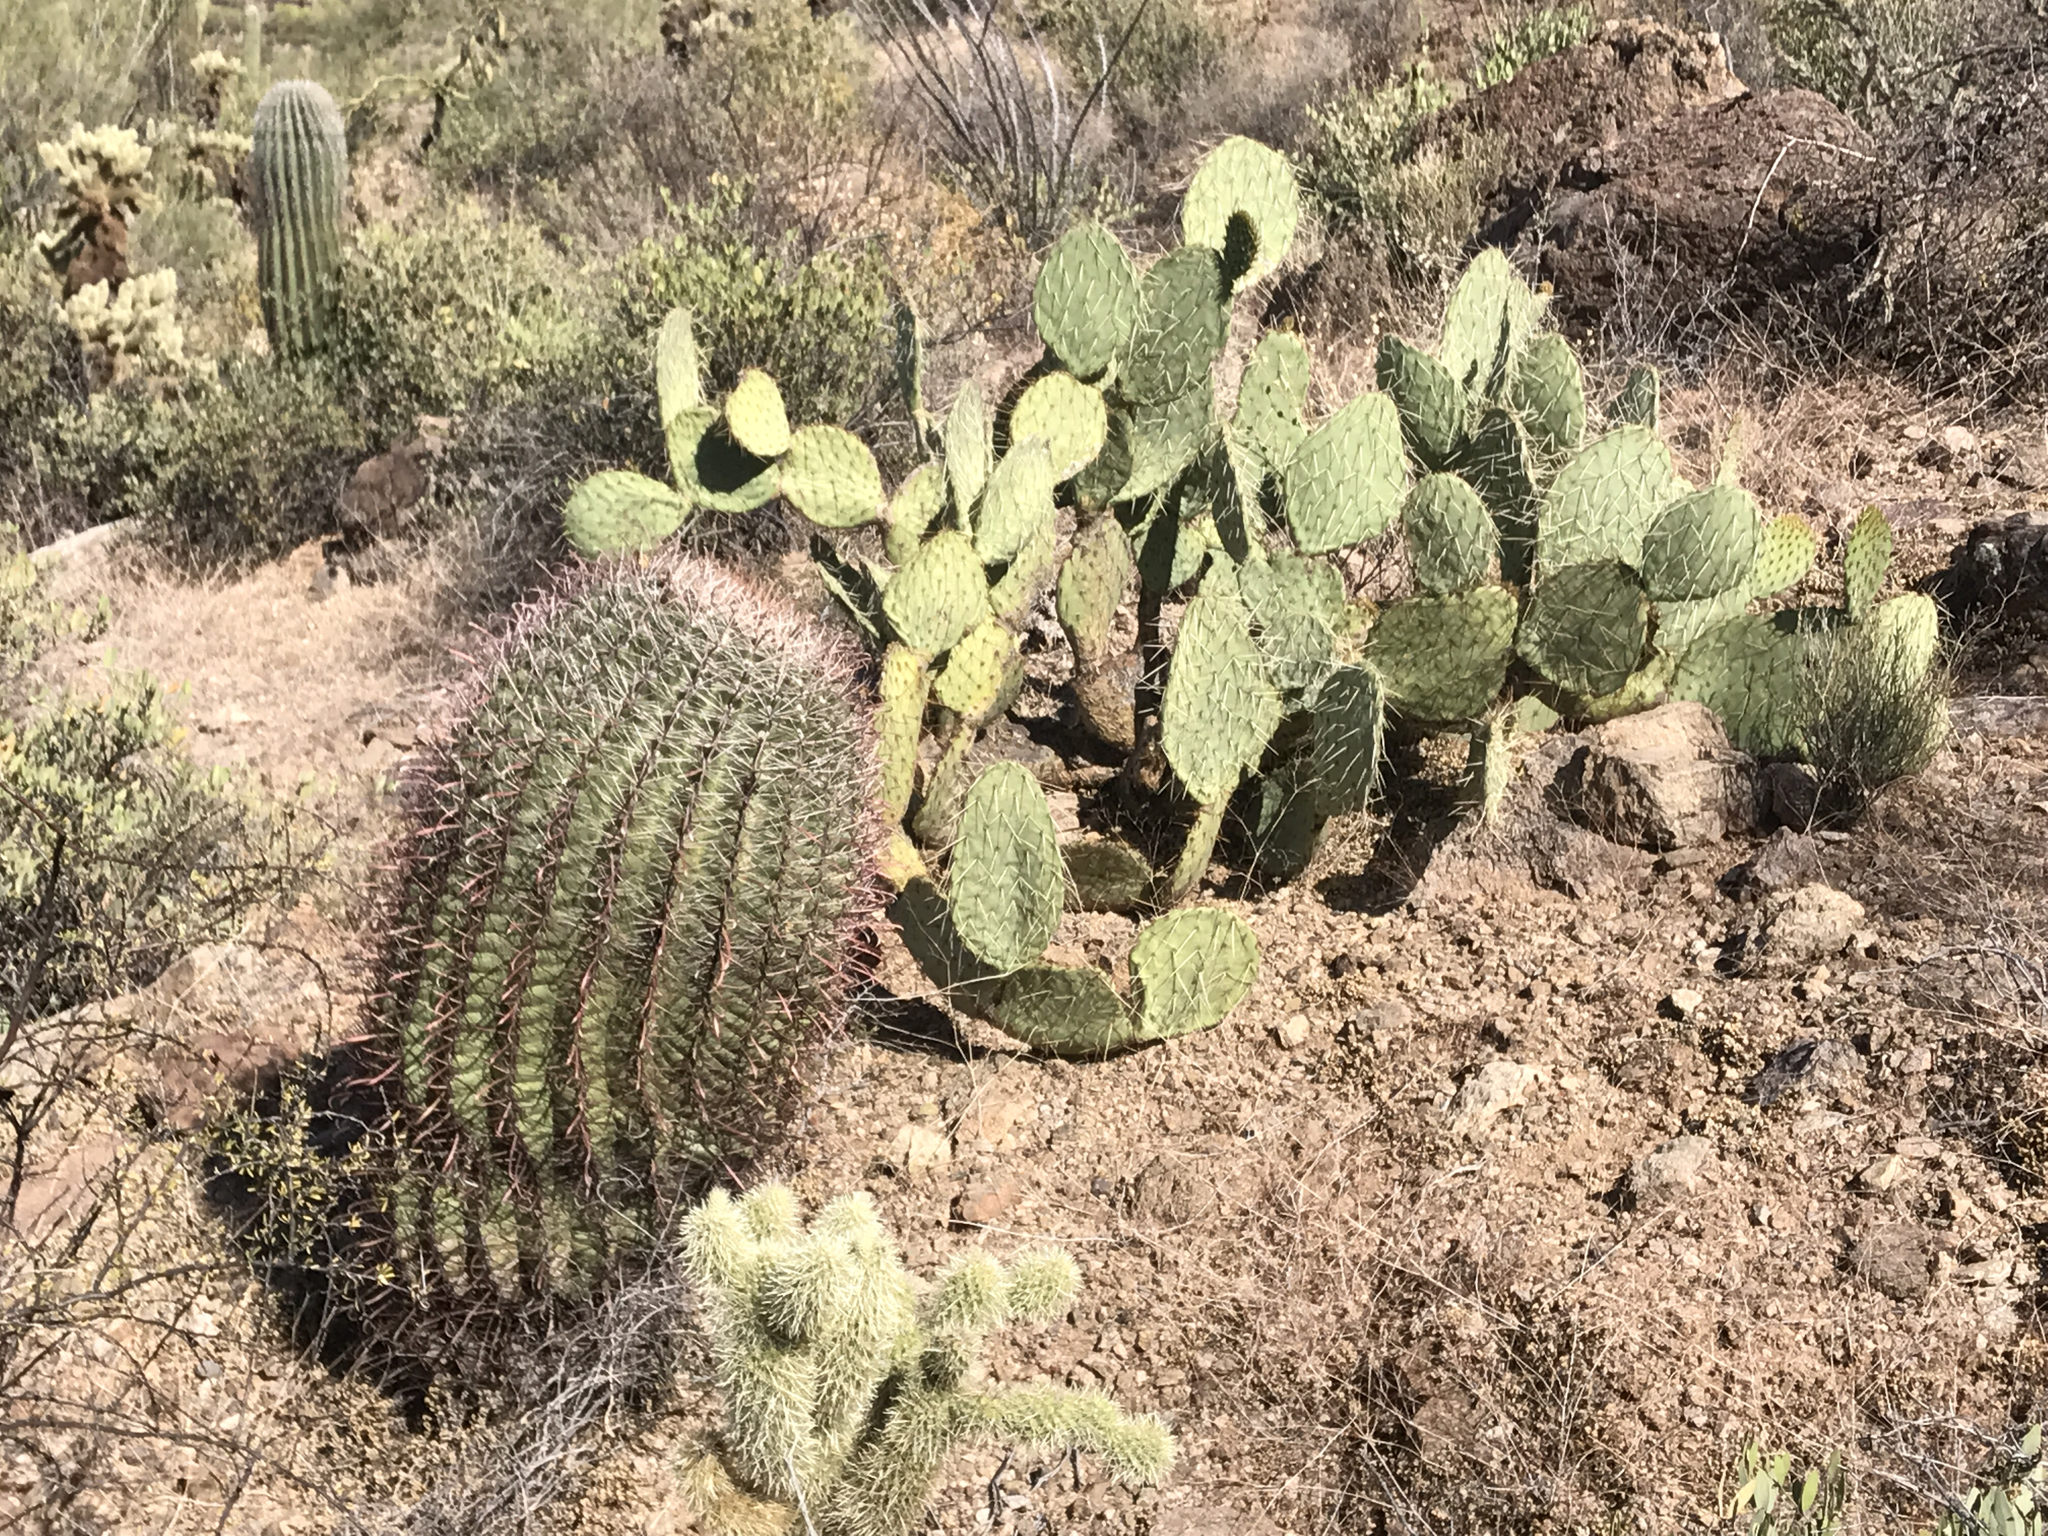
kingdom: Plantae
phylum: Tracheophyta
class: Magnoliopsida
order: Caryophyllales
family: Cactaceae
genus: Opuntia
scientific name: Opuntia engelmannii
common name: Cactus-apple
